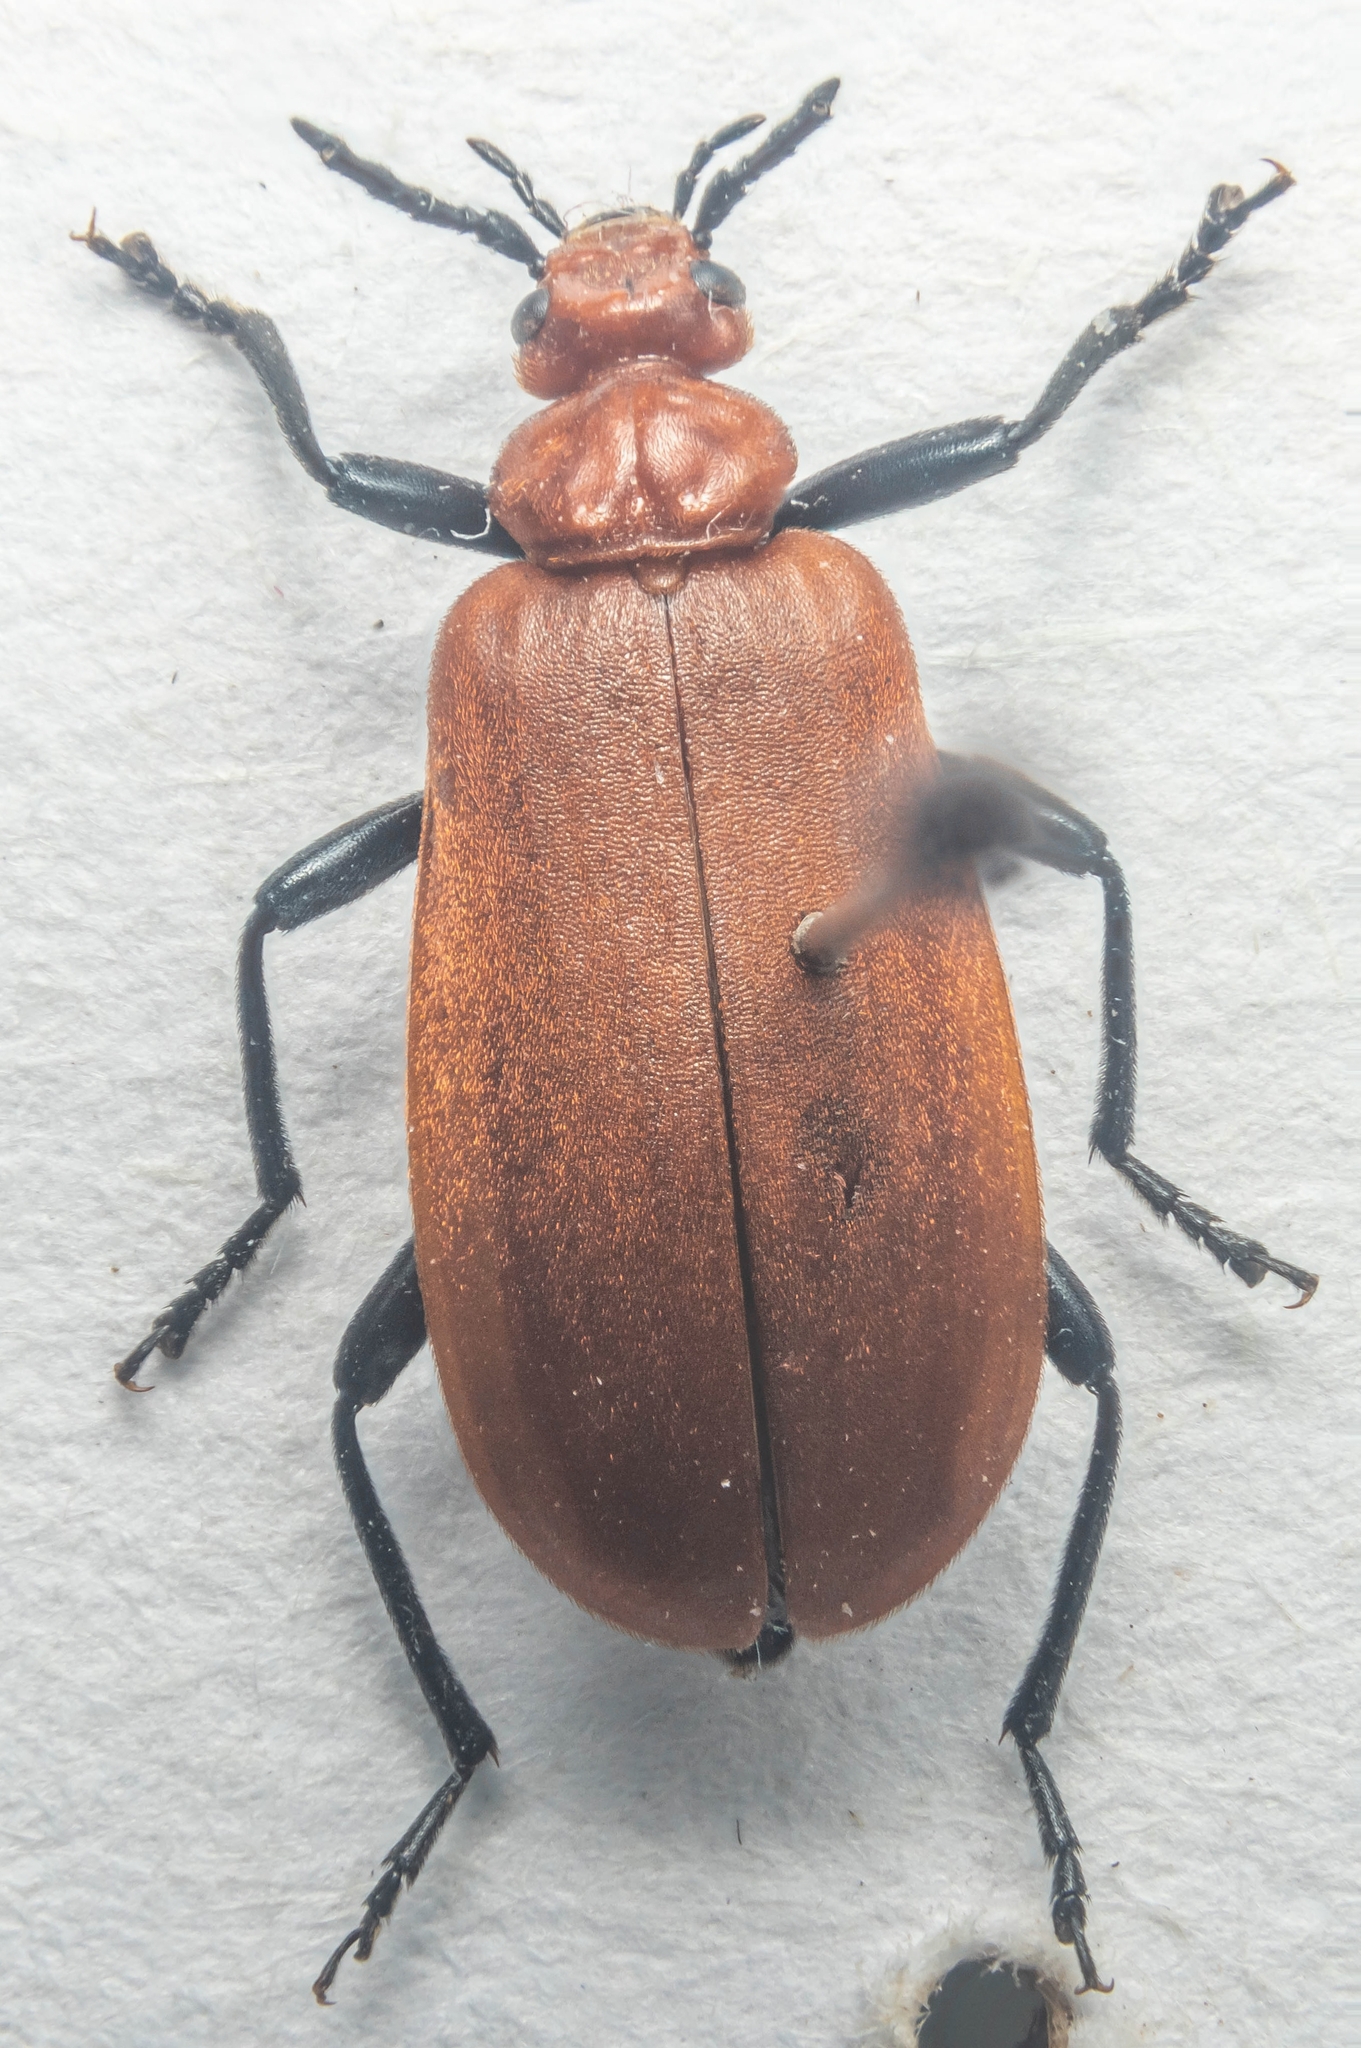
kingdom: Animalia
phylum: Arthropoda
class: Insecta
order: Coleoptera
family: Pyrochroidae
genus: Pyrochroa
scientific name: Pyrochroa serraticornis
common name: Red-headed cardinal beetle
